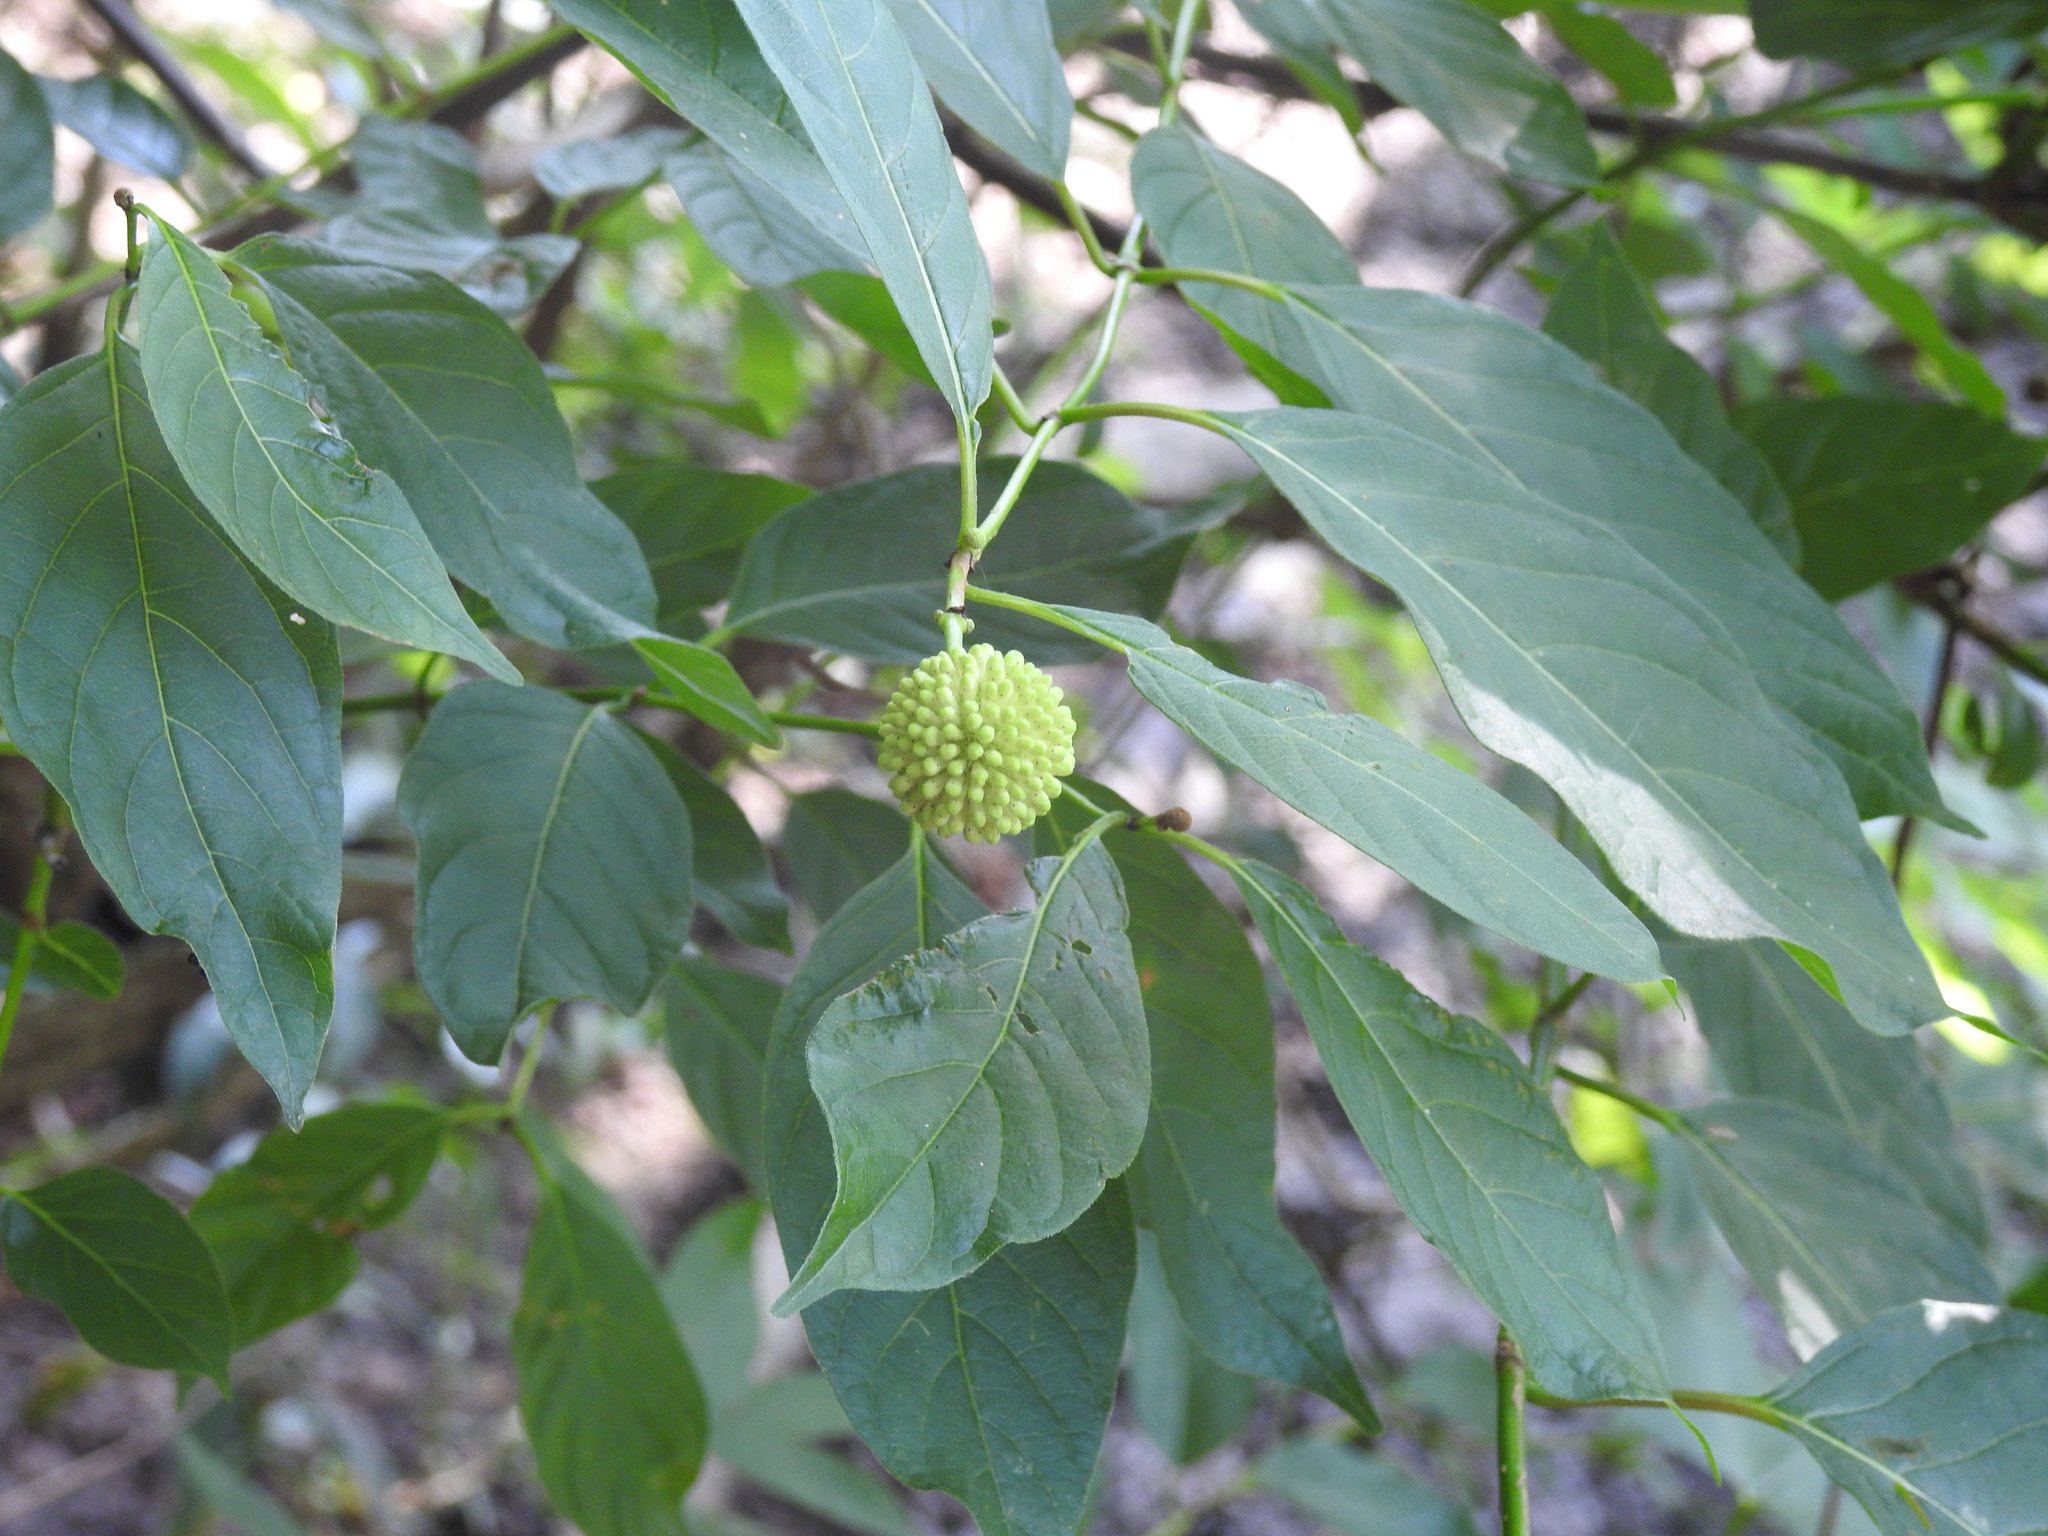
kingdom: Plantae
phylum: Tracheophyta
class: Magnoliopsida
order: Gentianales
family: Rubiaceae
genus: Cephalanthus
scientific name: Cephalanthus occidentalis
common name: Button-willow
